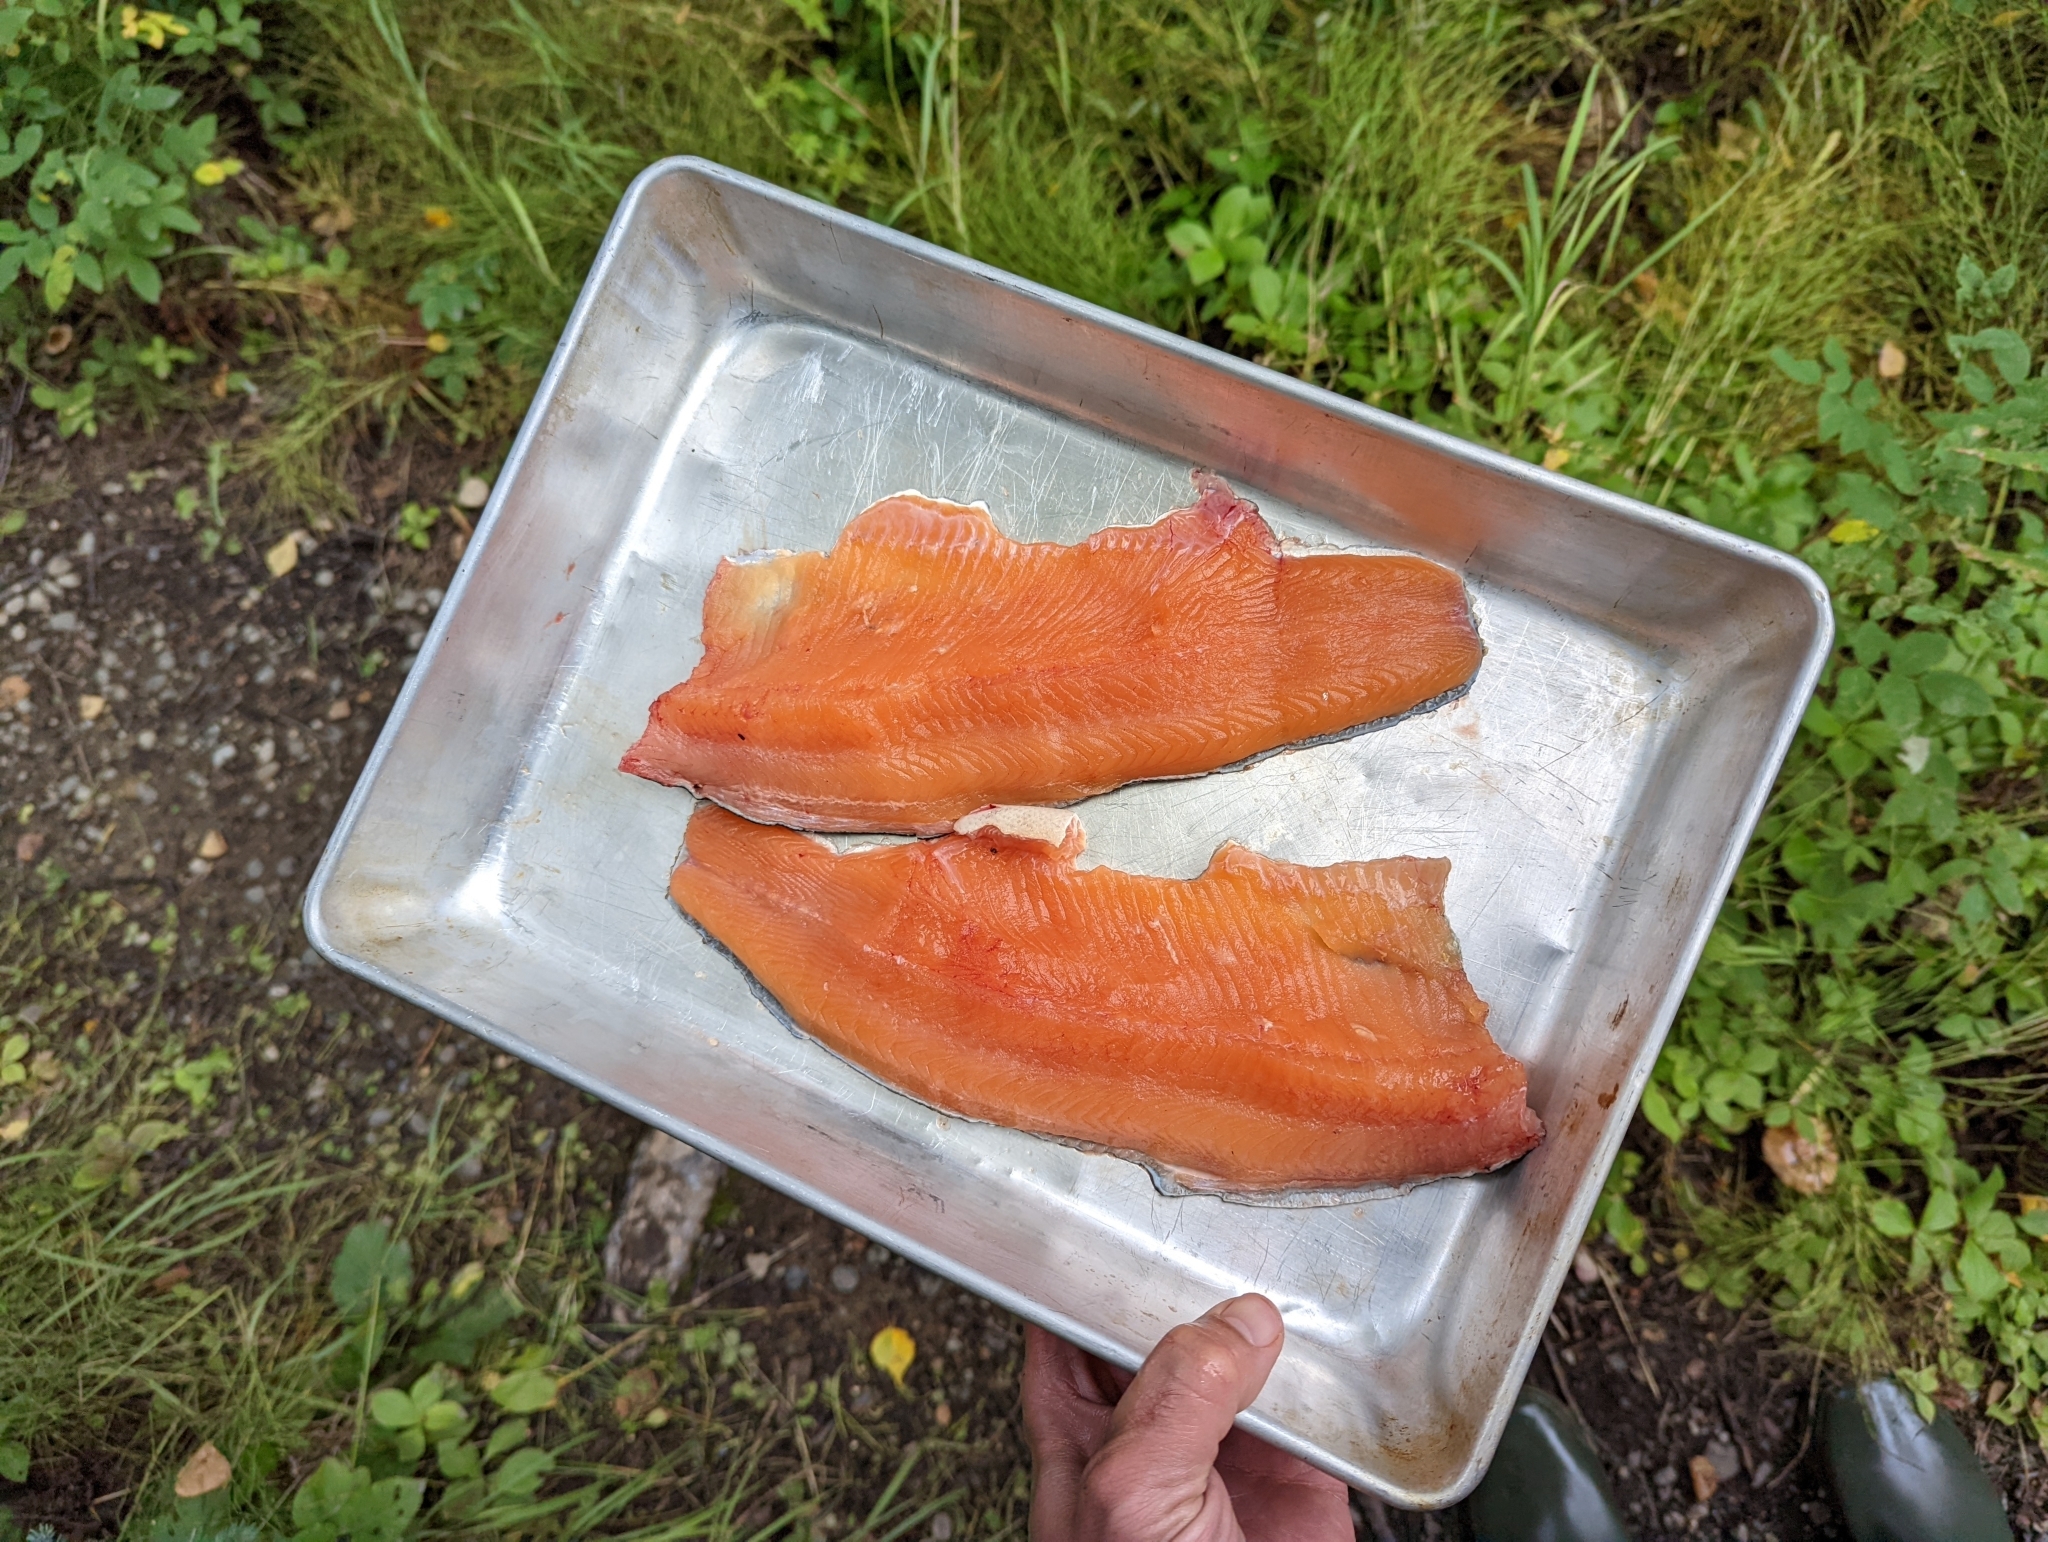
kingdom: Animalia
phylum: Chordata
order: Salmoniformes
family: Salmonidae
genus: Oncorhynchus
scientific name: Oncorhynchus mykiss
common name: Rainbow trout
